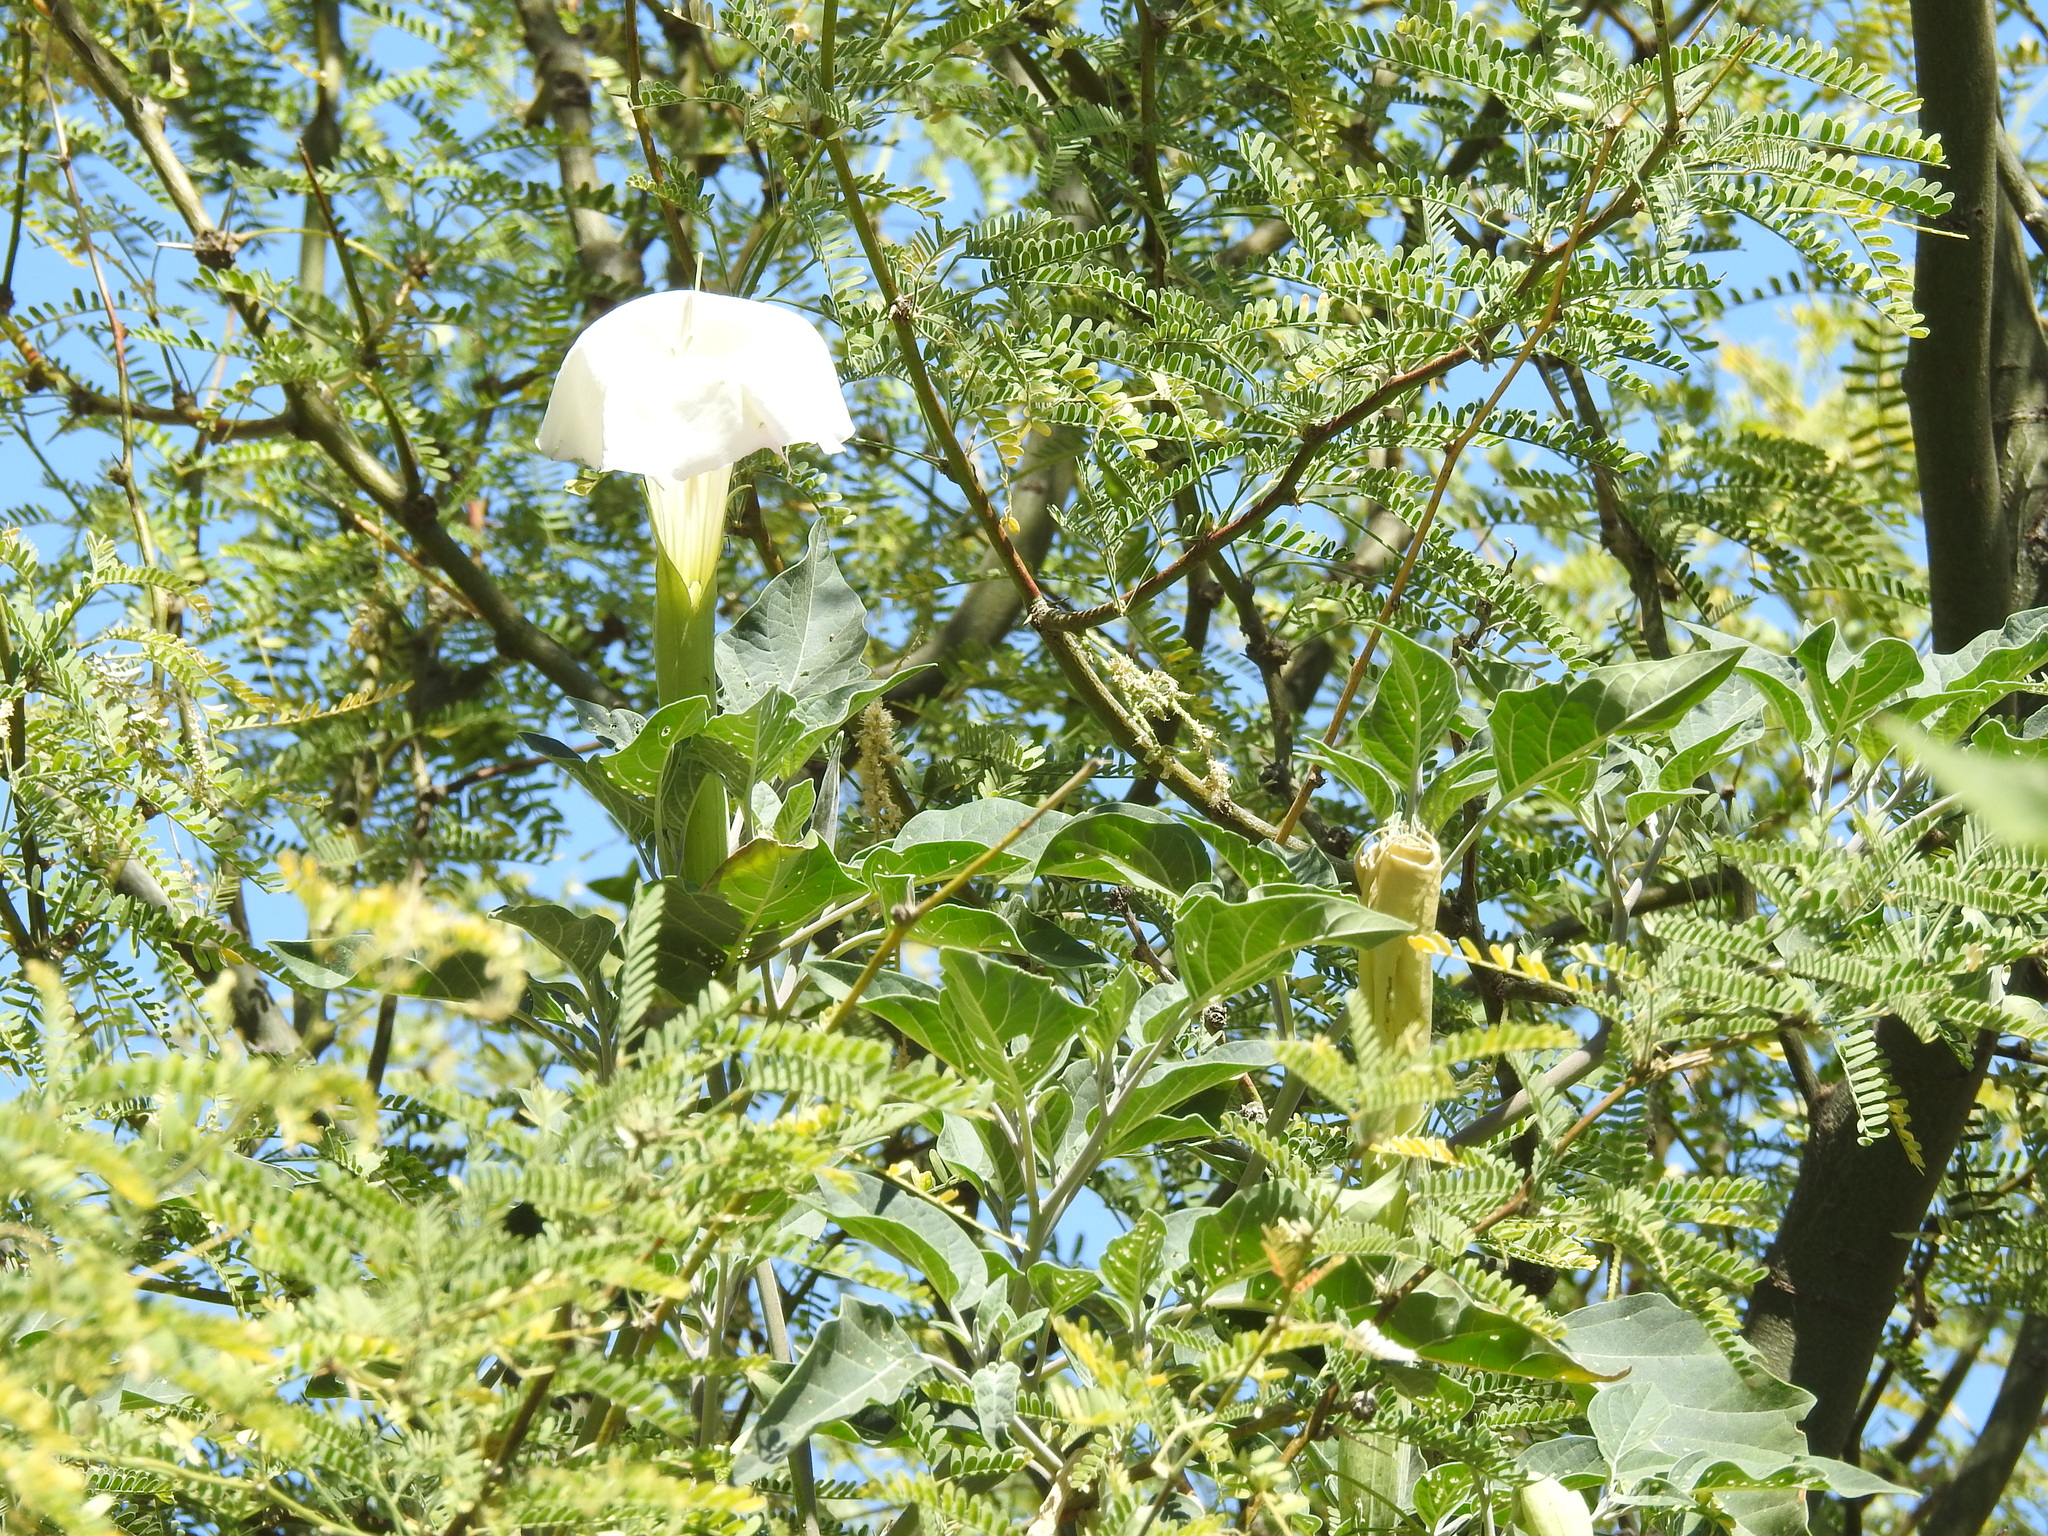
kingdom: Plantae
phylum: Tracheophyta
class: Magnoliopsida
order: Solanales
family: Solanaceae
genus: Datura
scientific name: Datura wrightii
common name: Sacred thorn-apple
